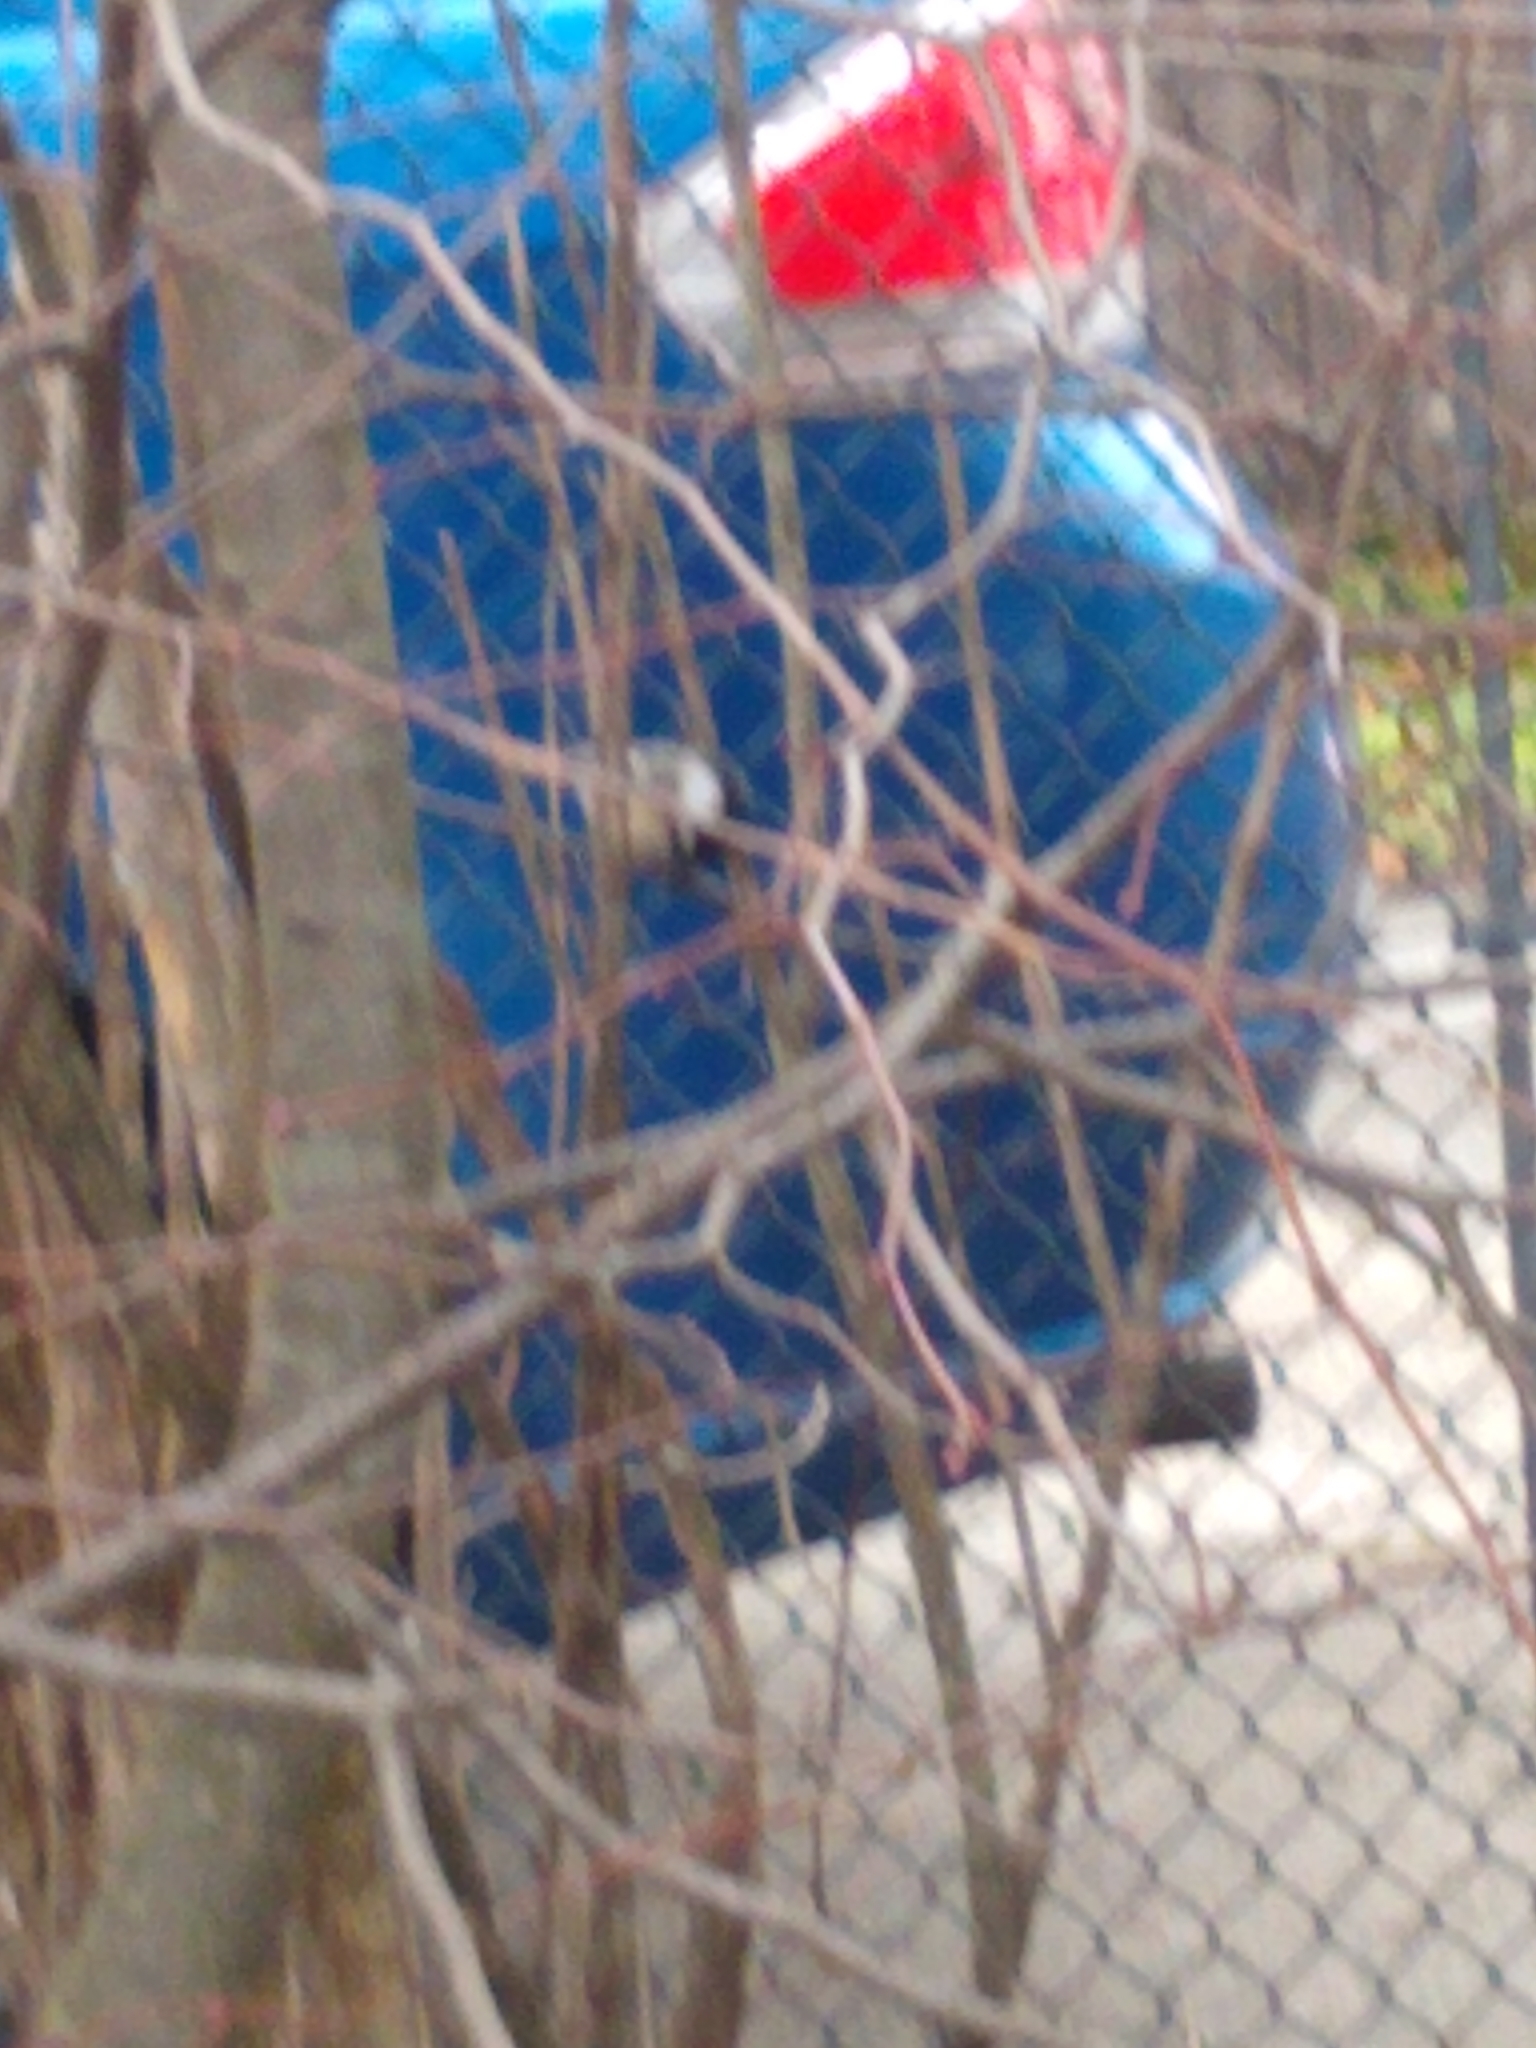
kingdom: Animalia
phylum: Chordata
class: Aves
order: Passeriformes
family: Paridae
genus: Poecile
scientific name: Poecile atricapillus
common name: Black-capped chickadee
